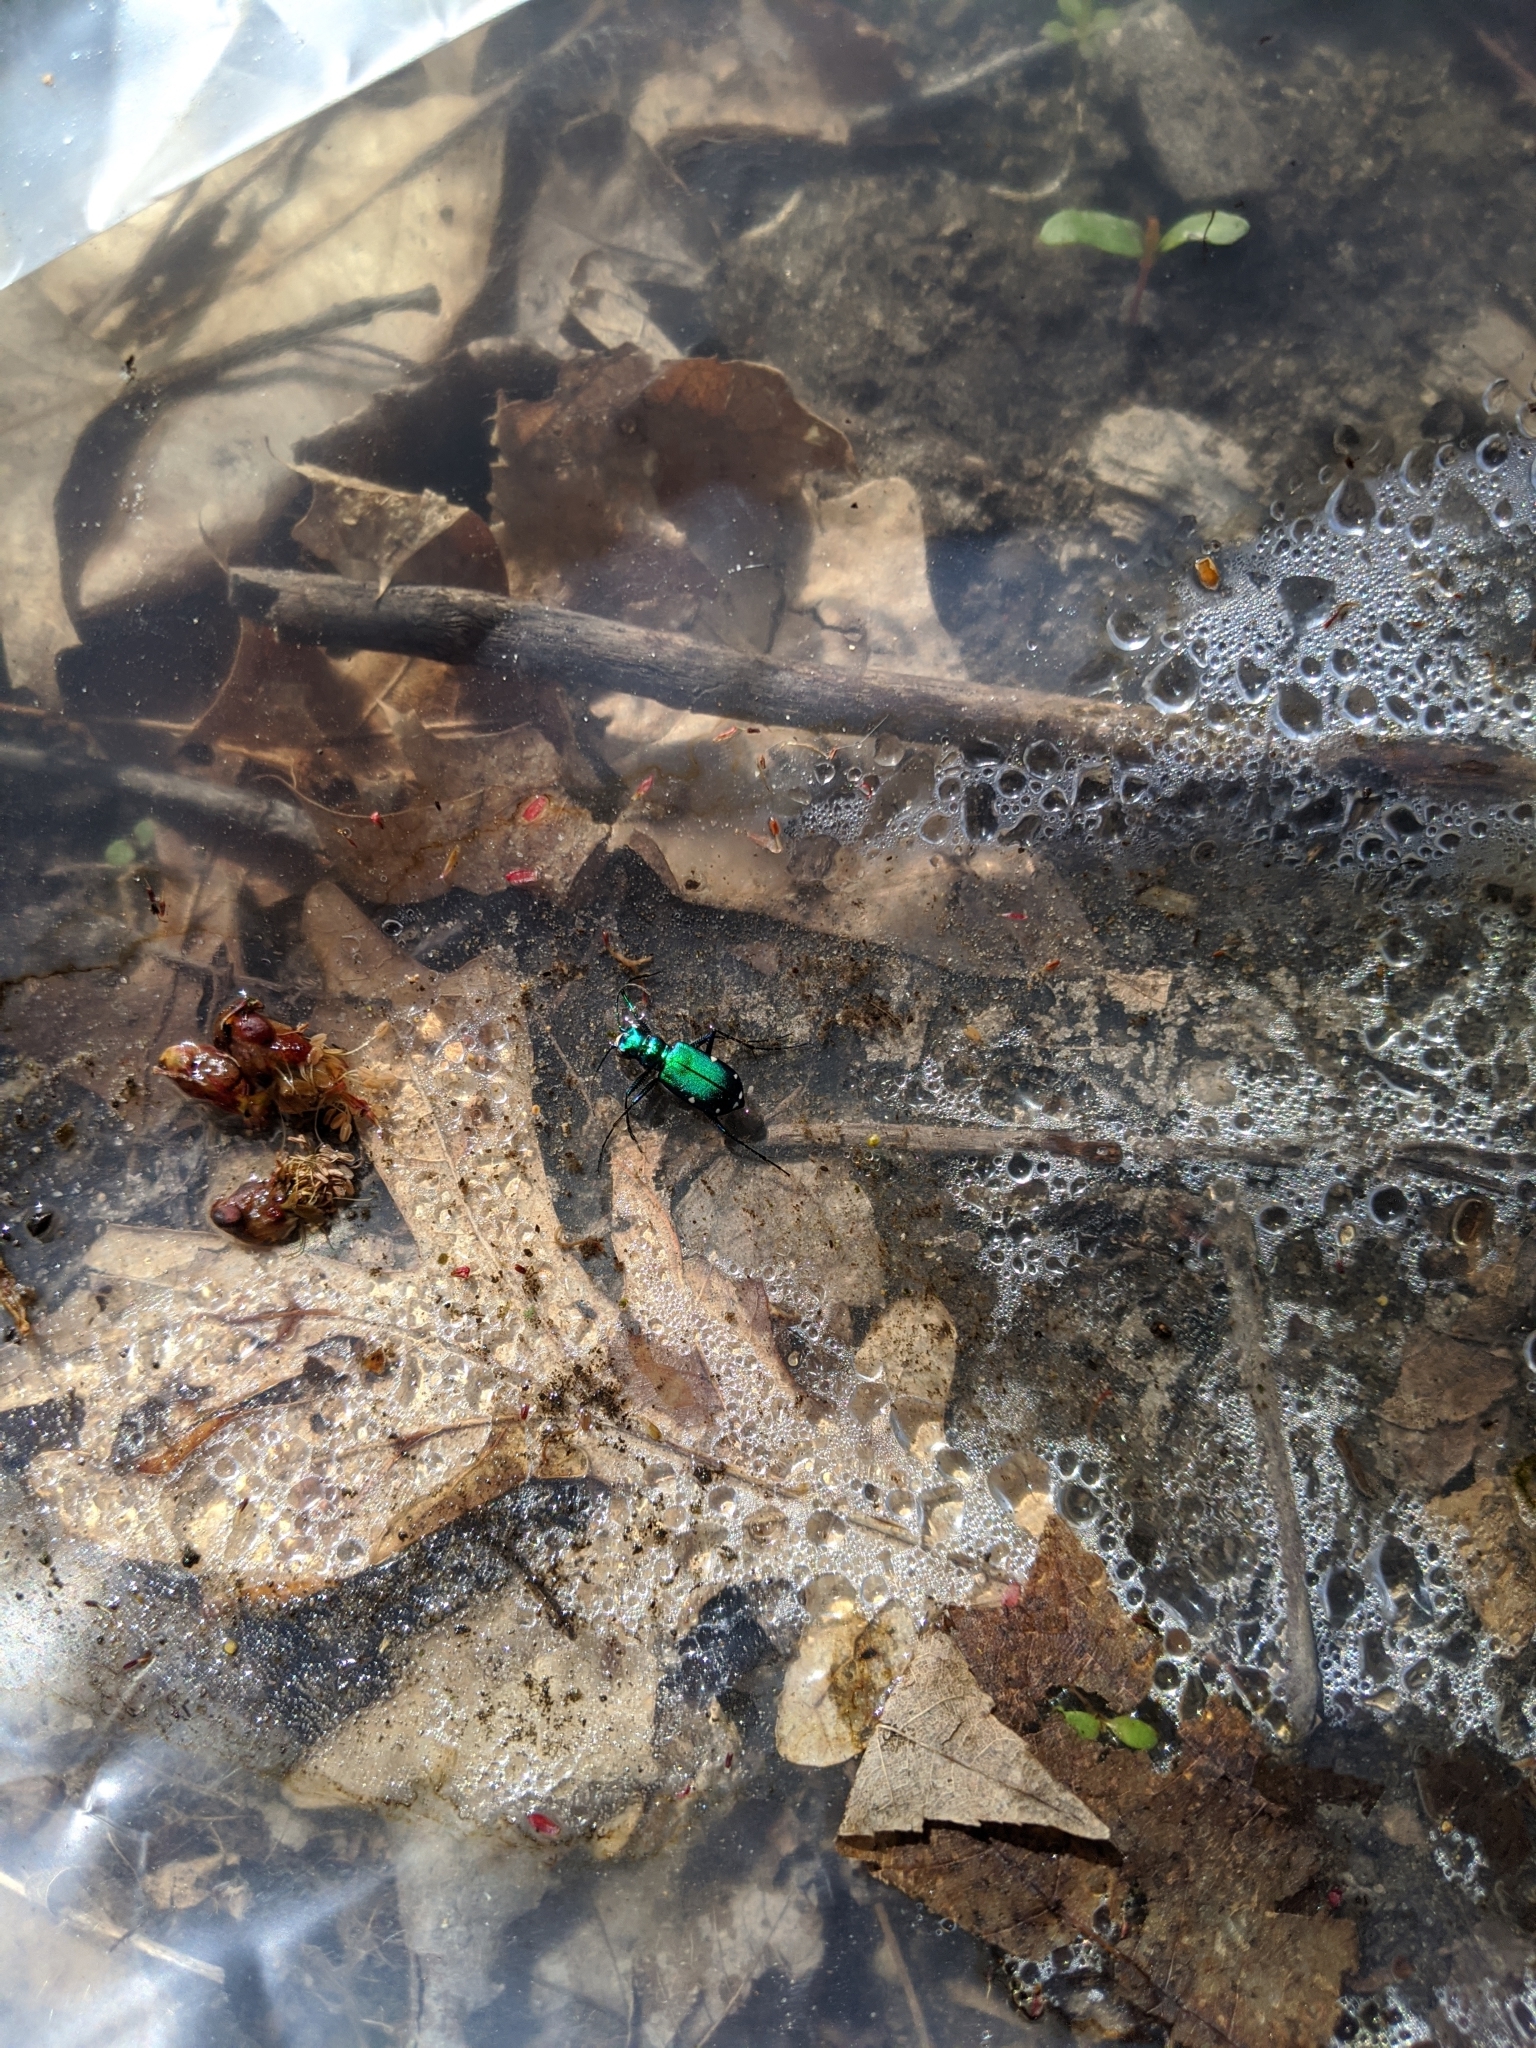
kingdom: Animalia
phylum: Arthropoda
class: Insecta
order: Coleoptera
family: Carabidae
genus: Cicindela
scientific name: Cicindela sexguttata
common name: Six-spotted tiger beetle
